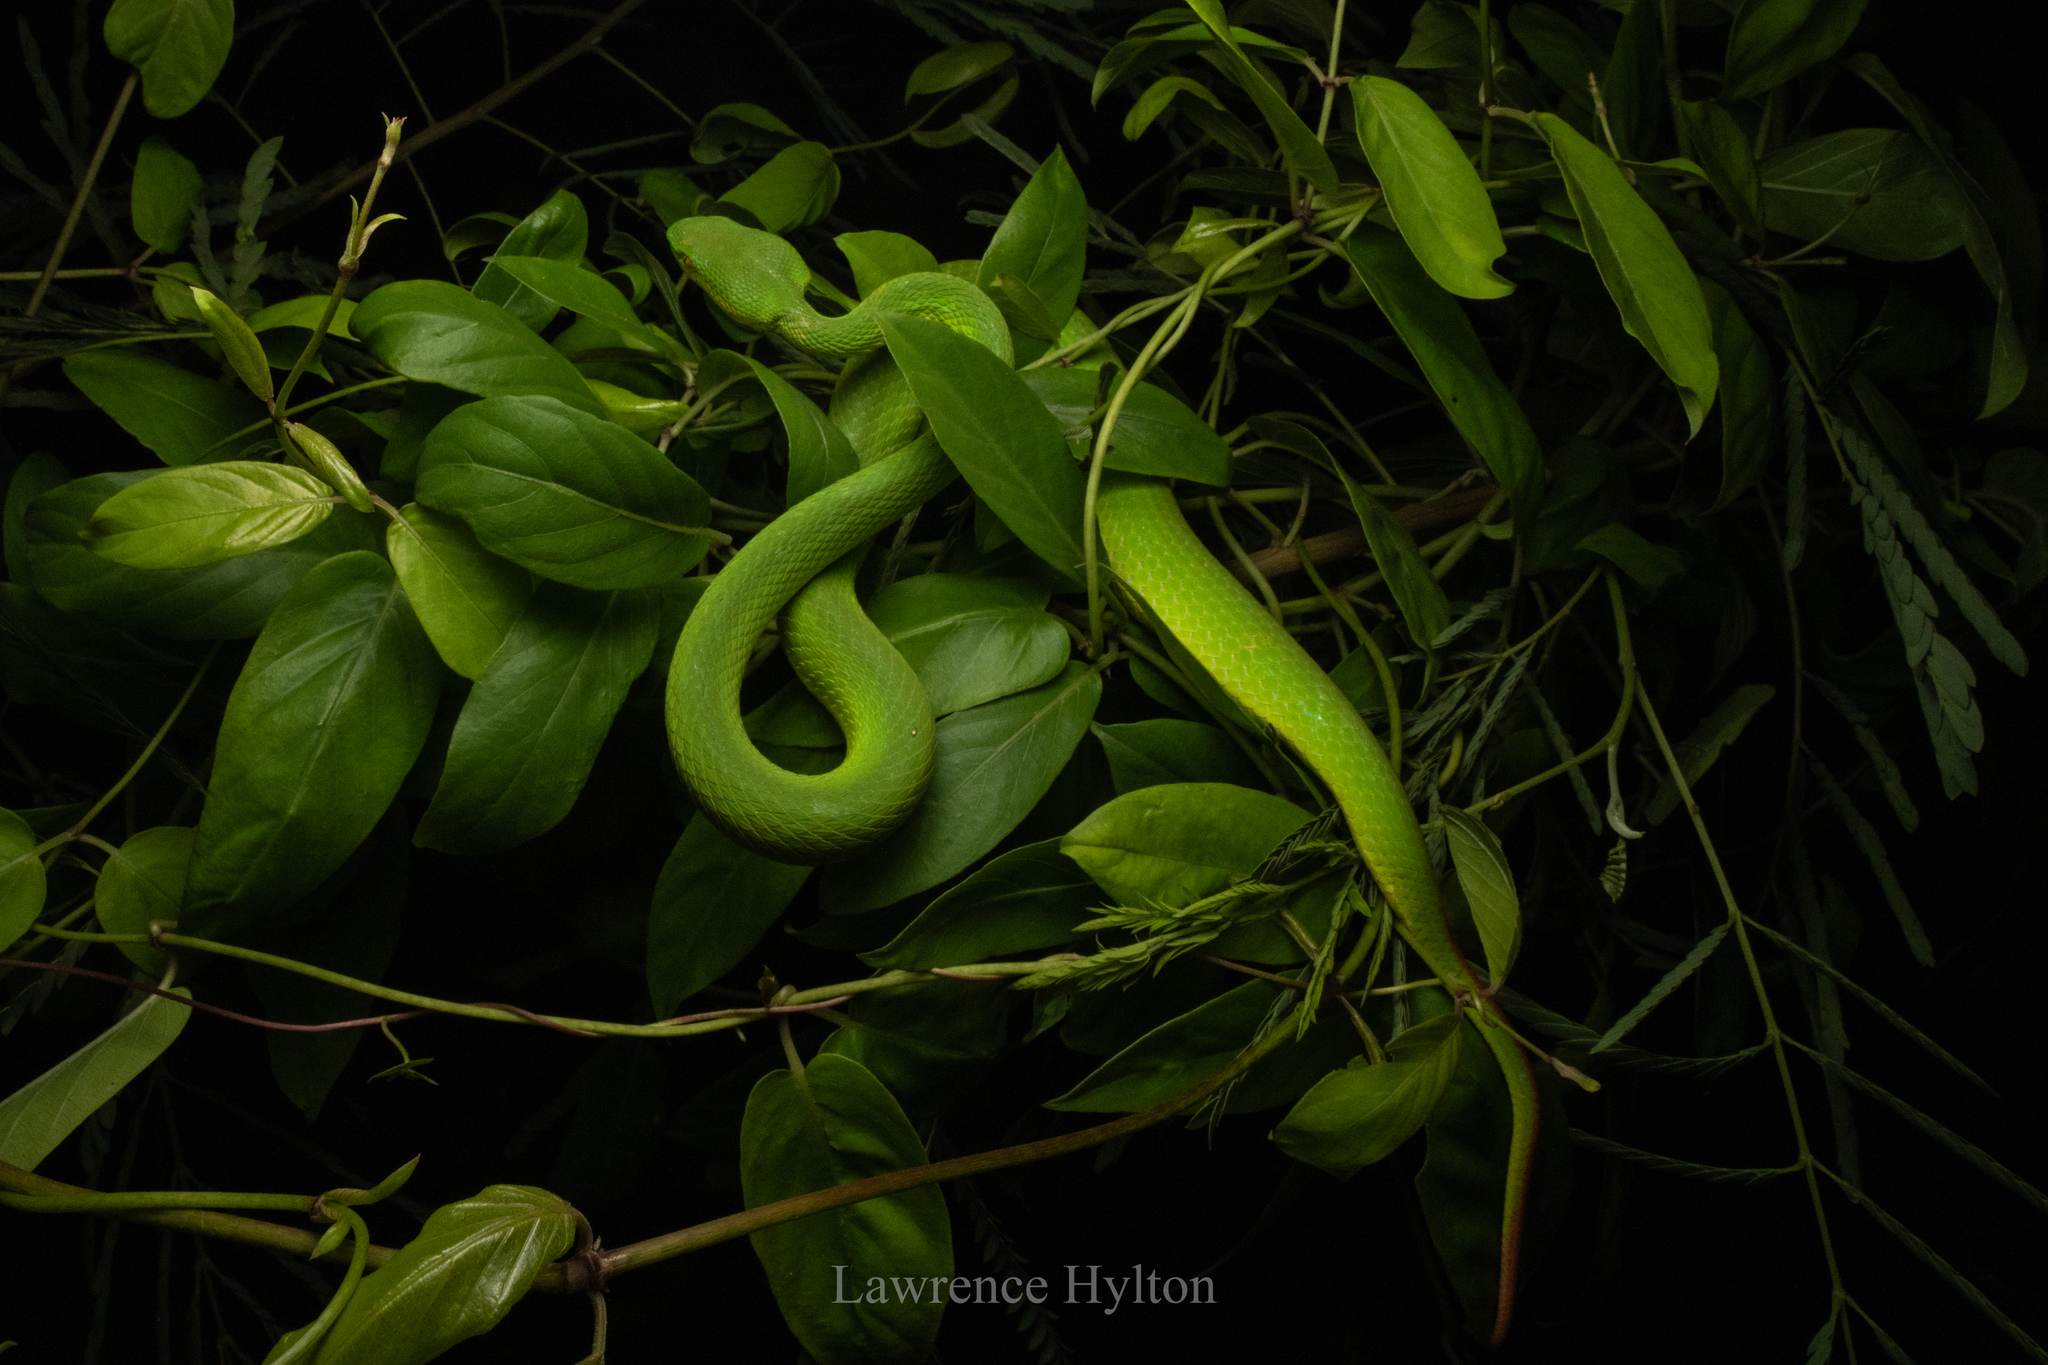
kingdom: Animalia
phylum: Chordata
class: Squamata
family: Viperidae
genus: Trimeresurus
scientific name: Trimeresurus albolabris
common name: White-lipped pitviper
